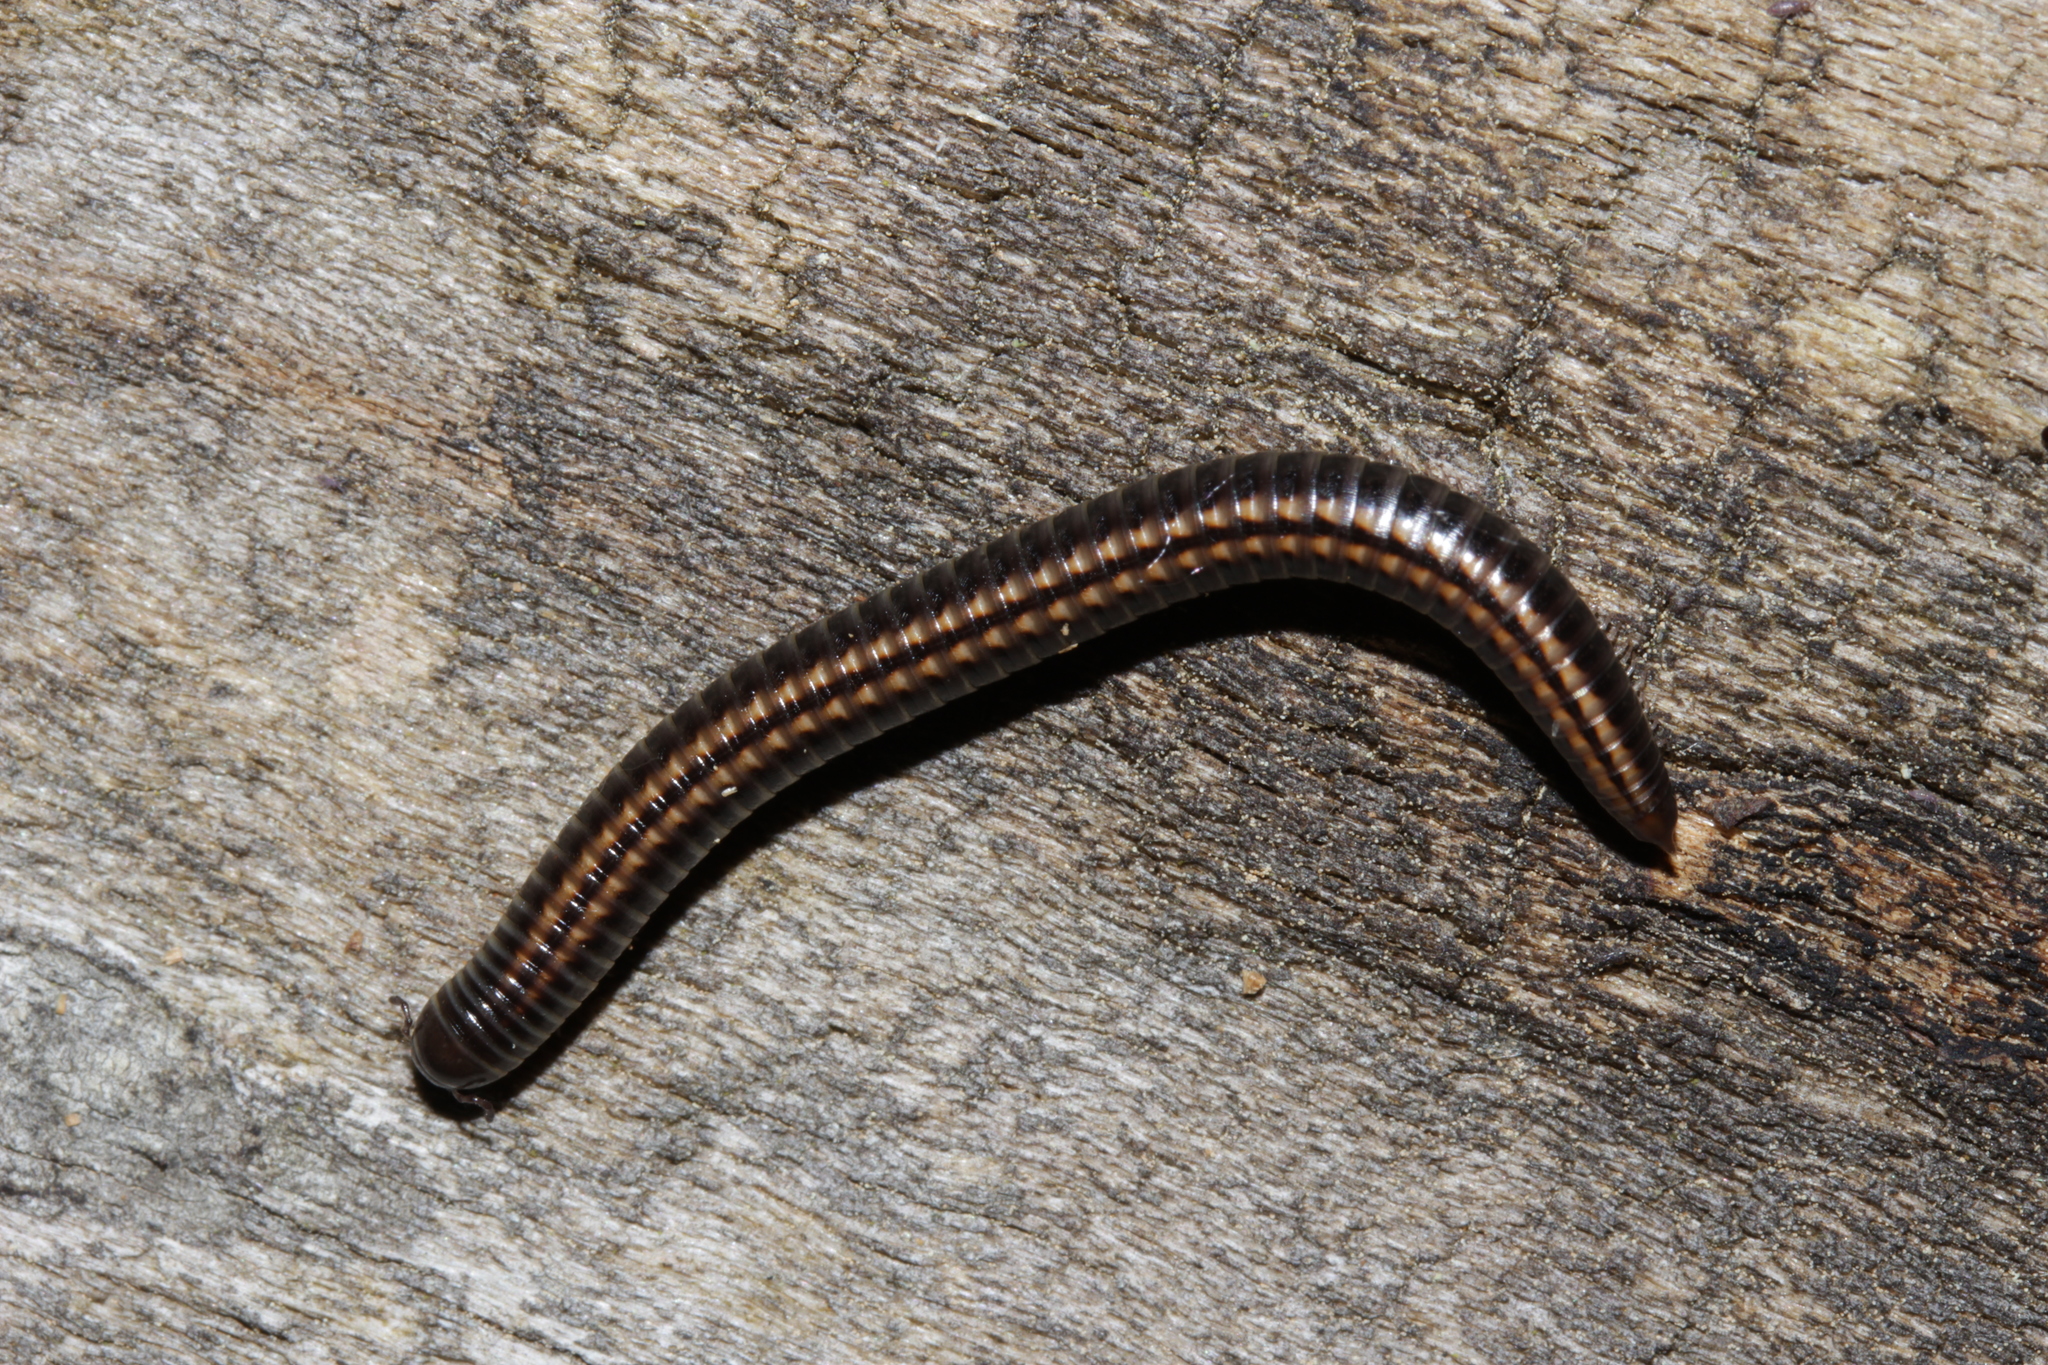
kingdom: Animalia
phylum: Arthropoda
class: Diplopoda
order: Julida
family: Julidae
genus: Ommatoiulus
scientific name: Ommatoiulus sabulosus
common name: Striped millipede
